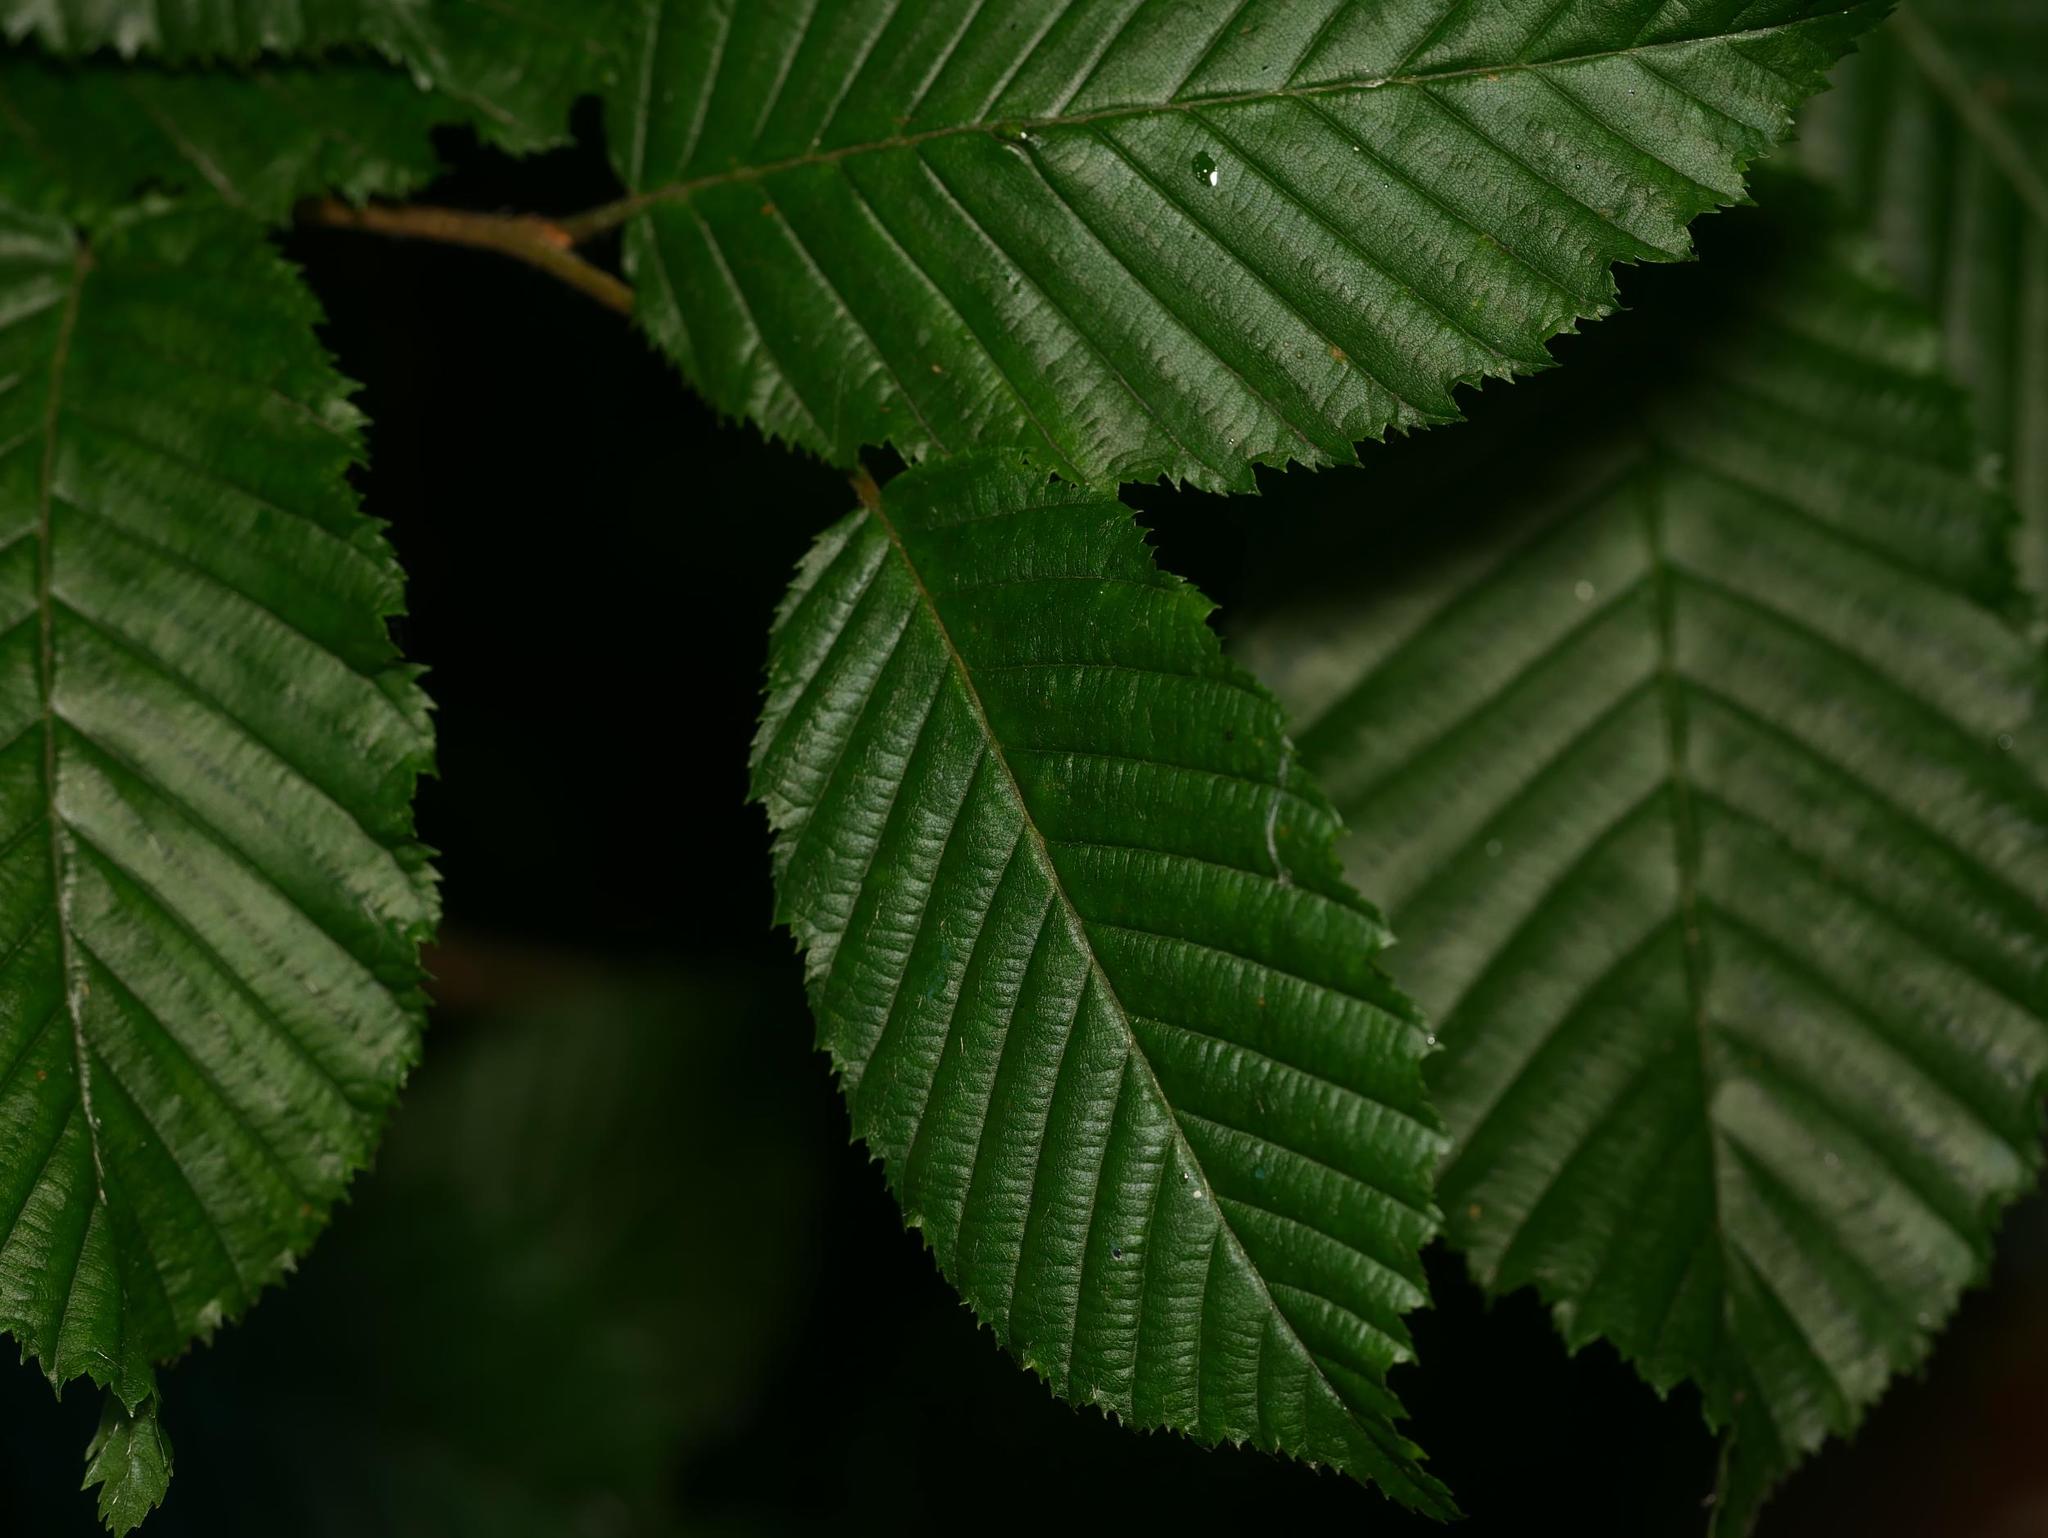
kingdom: Plantae
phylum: Tracheophyta
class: Magnoliopsida
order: Fagales
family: Betulaceae
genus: Carpinus
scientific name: Carpinus betulus
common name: Hornbeam
